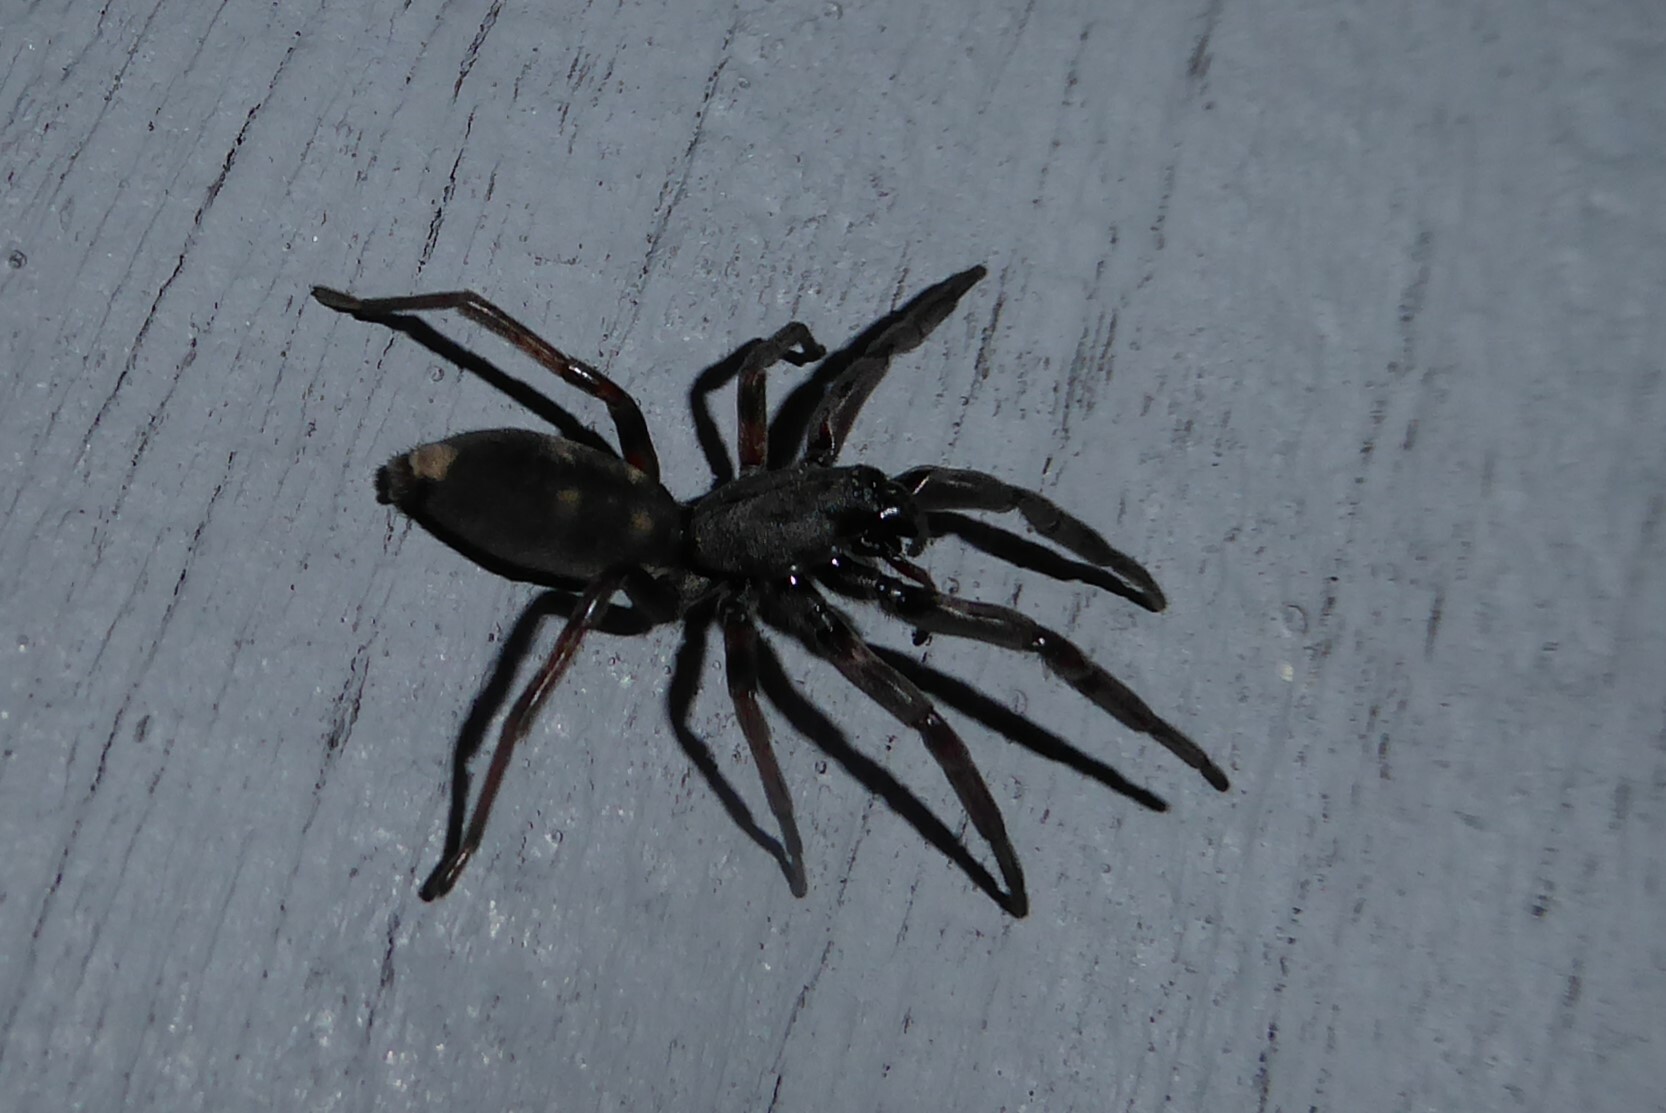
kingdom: Animalia
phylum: Arthropoda
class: Arachnida
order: Araneae
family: Lamponidae
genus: Lampona
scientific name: Lampona cylindrata
